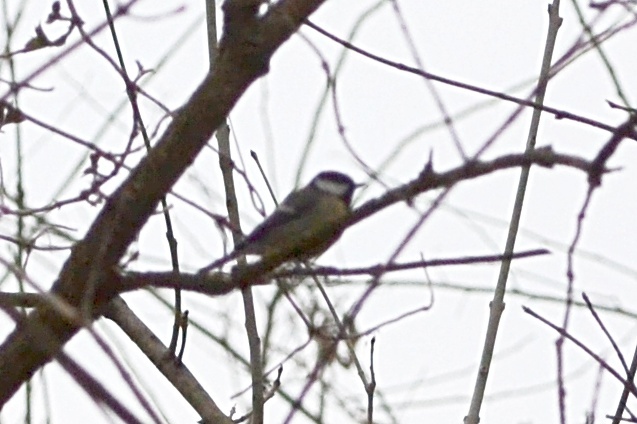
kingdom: Animalia
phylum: Chordata
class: Aves
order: Passeriformes
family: Paridae
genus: Parus
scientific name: Parus major
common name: Great tit
